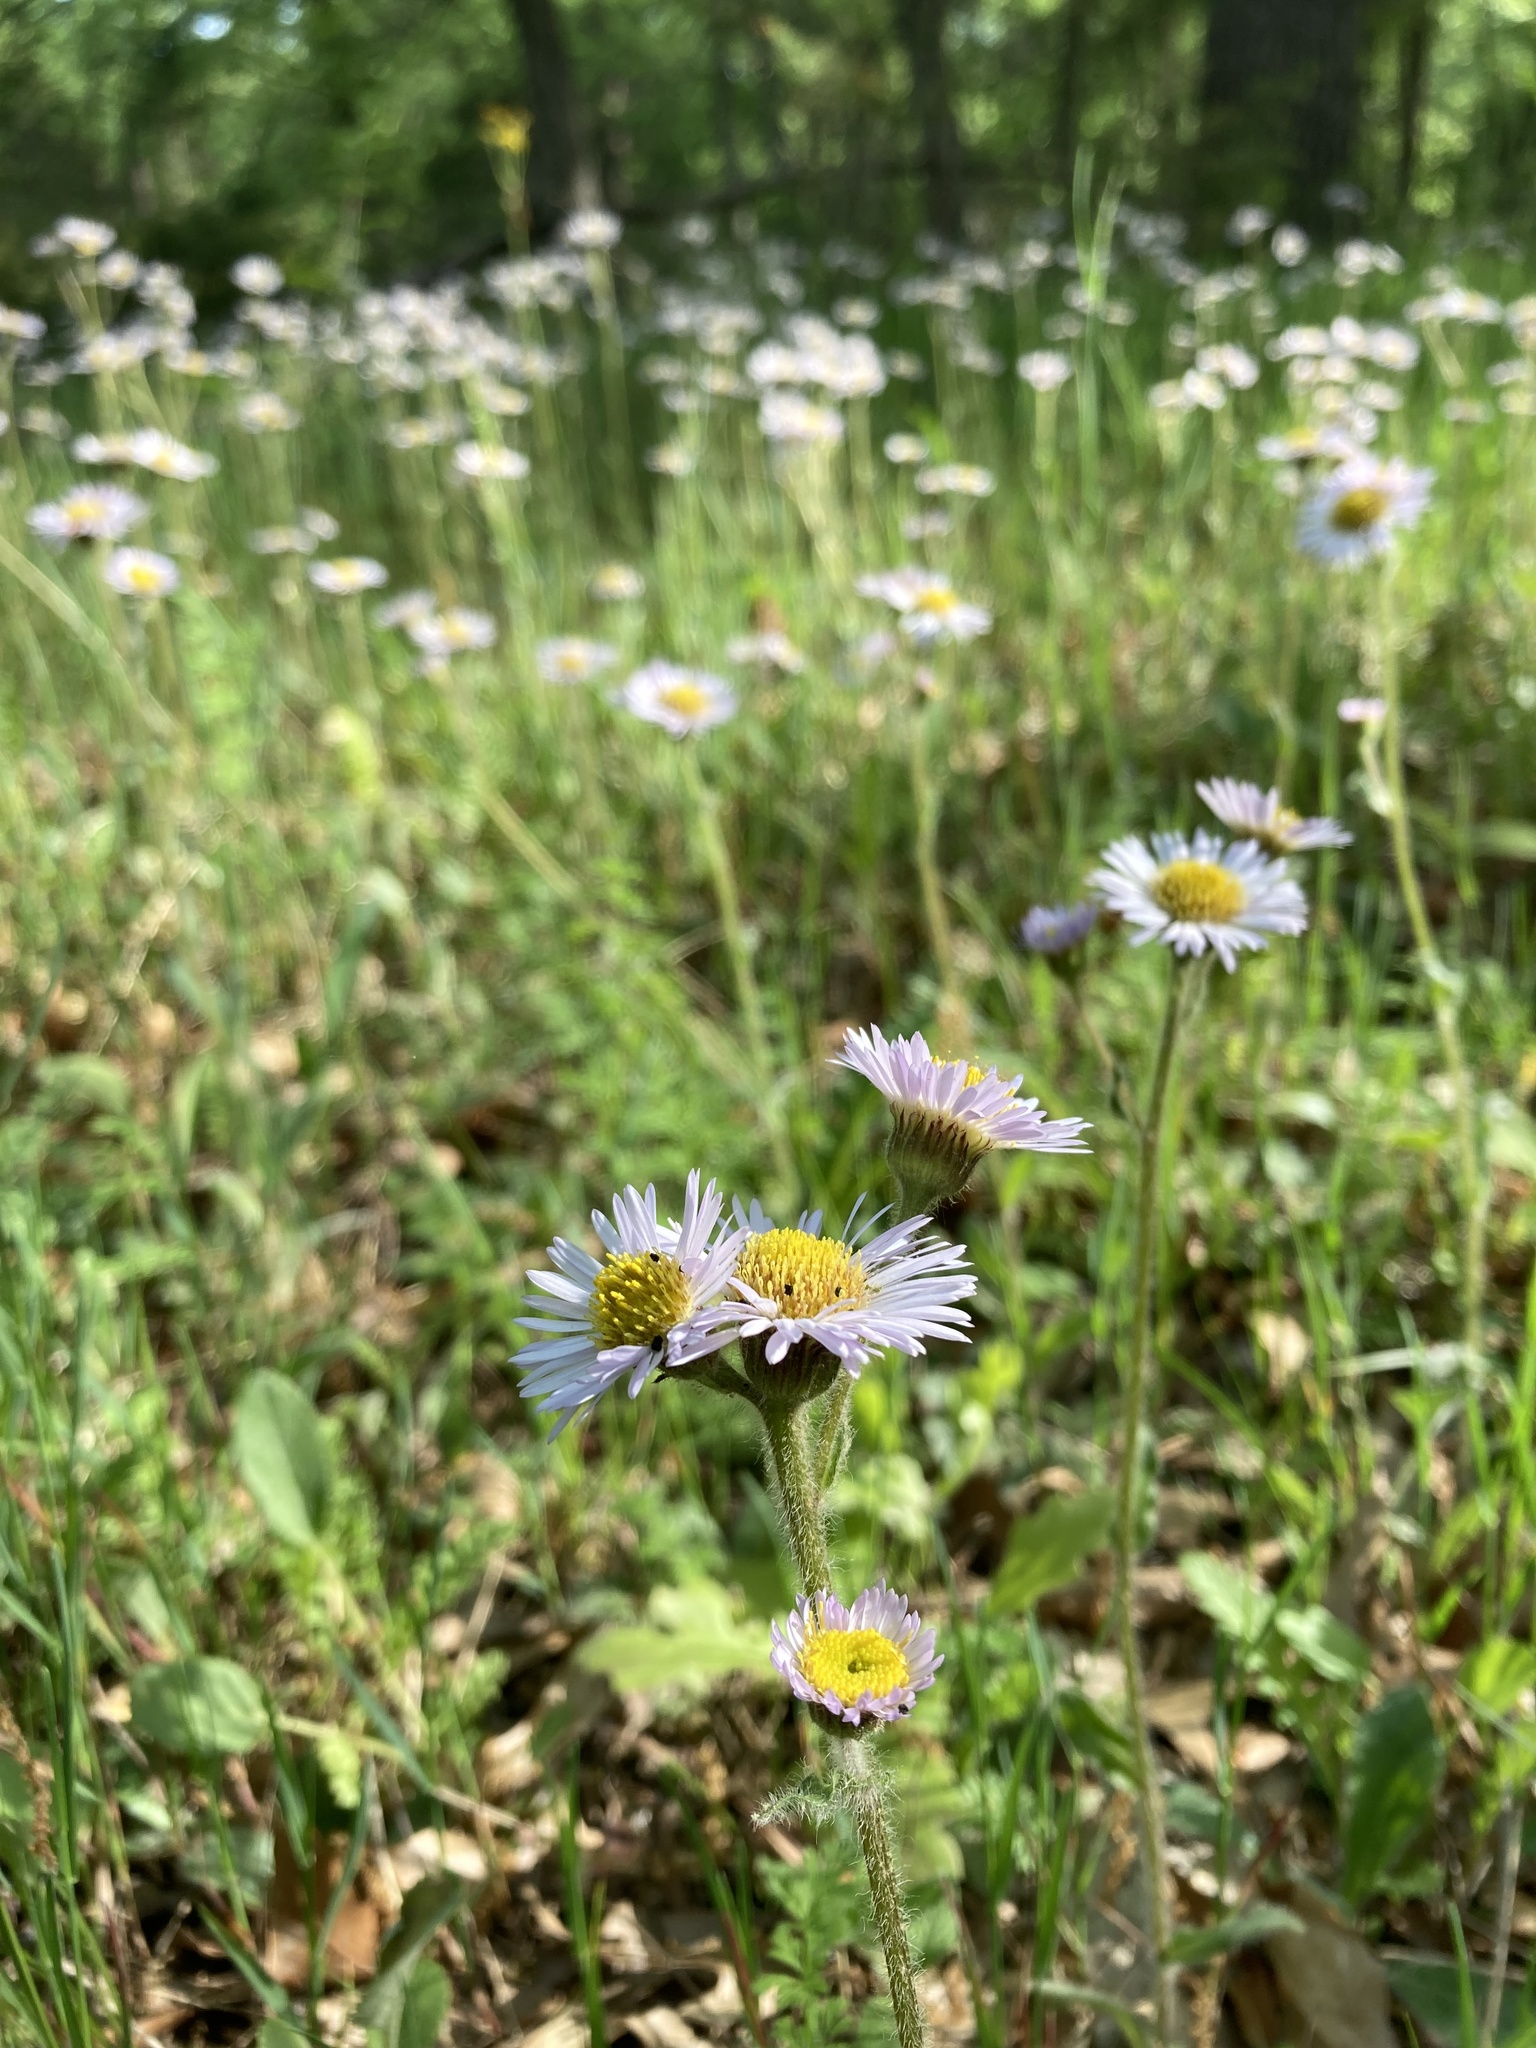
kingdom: Plantae
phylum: Tracheophyta
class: Magnoliopsida
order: Asterales
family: Asteraceae
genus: Erigeron
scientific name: Erigeron pulchellus
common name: Hairy fleabane
